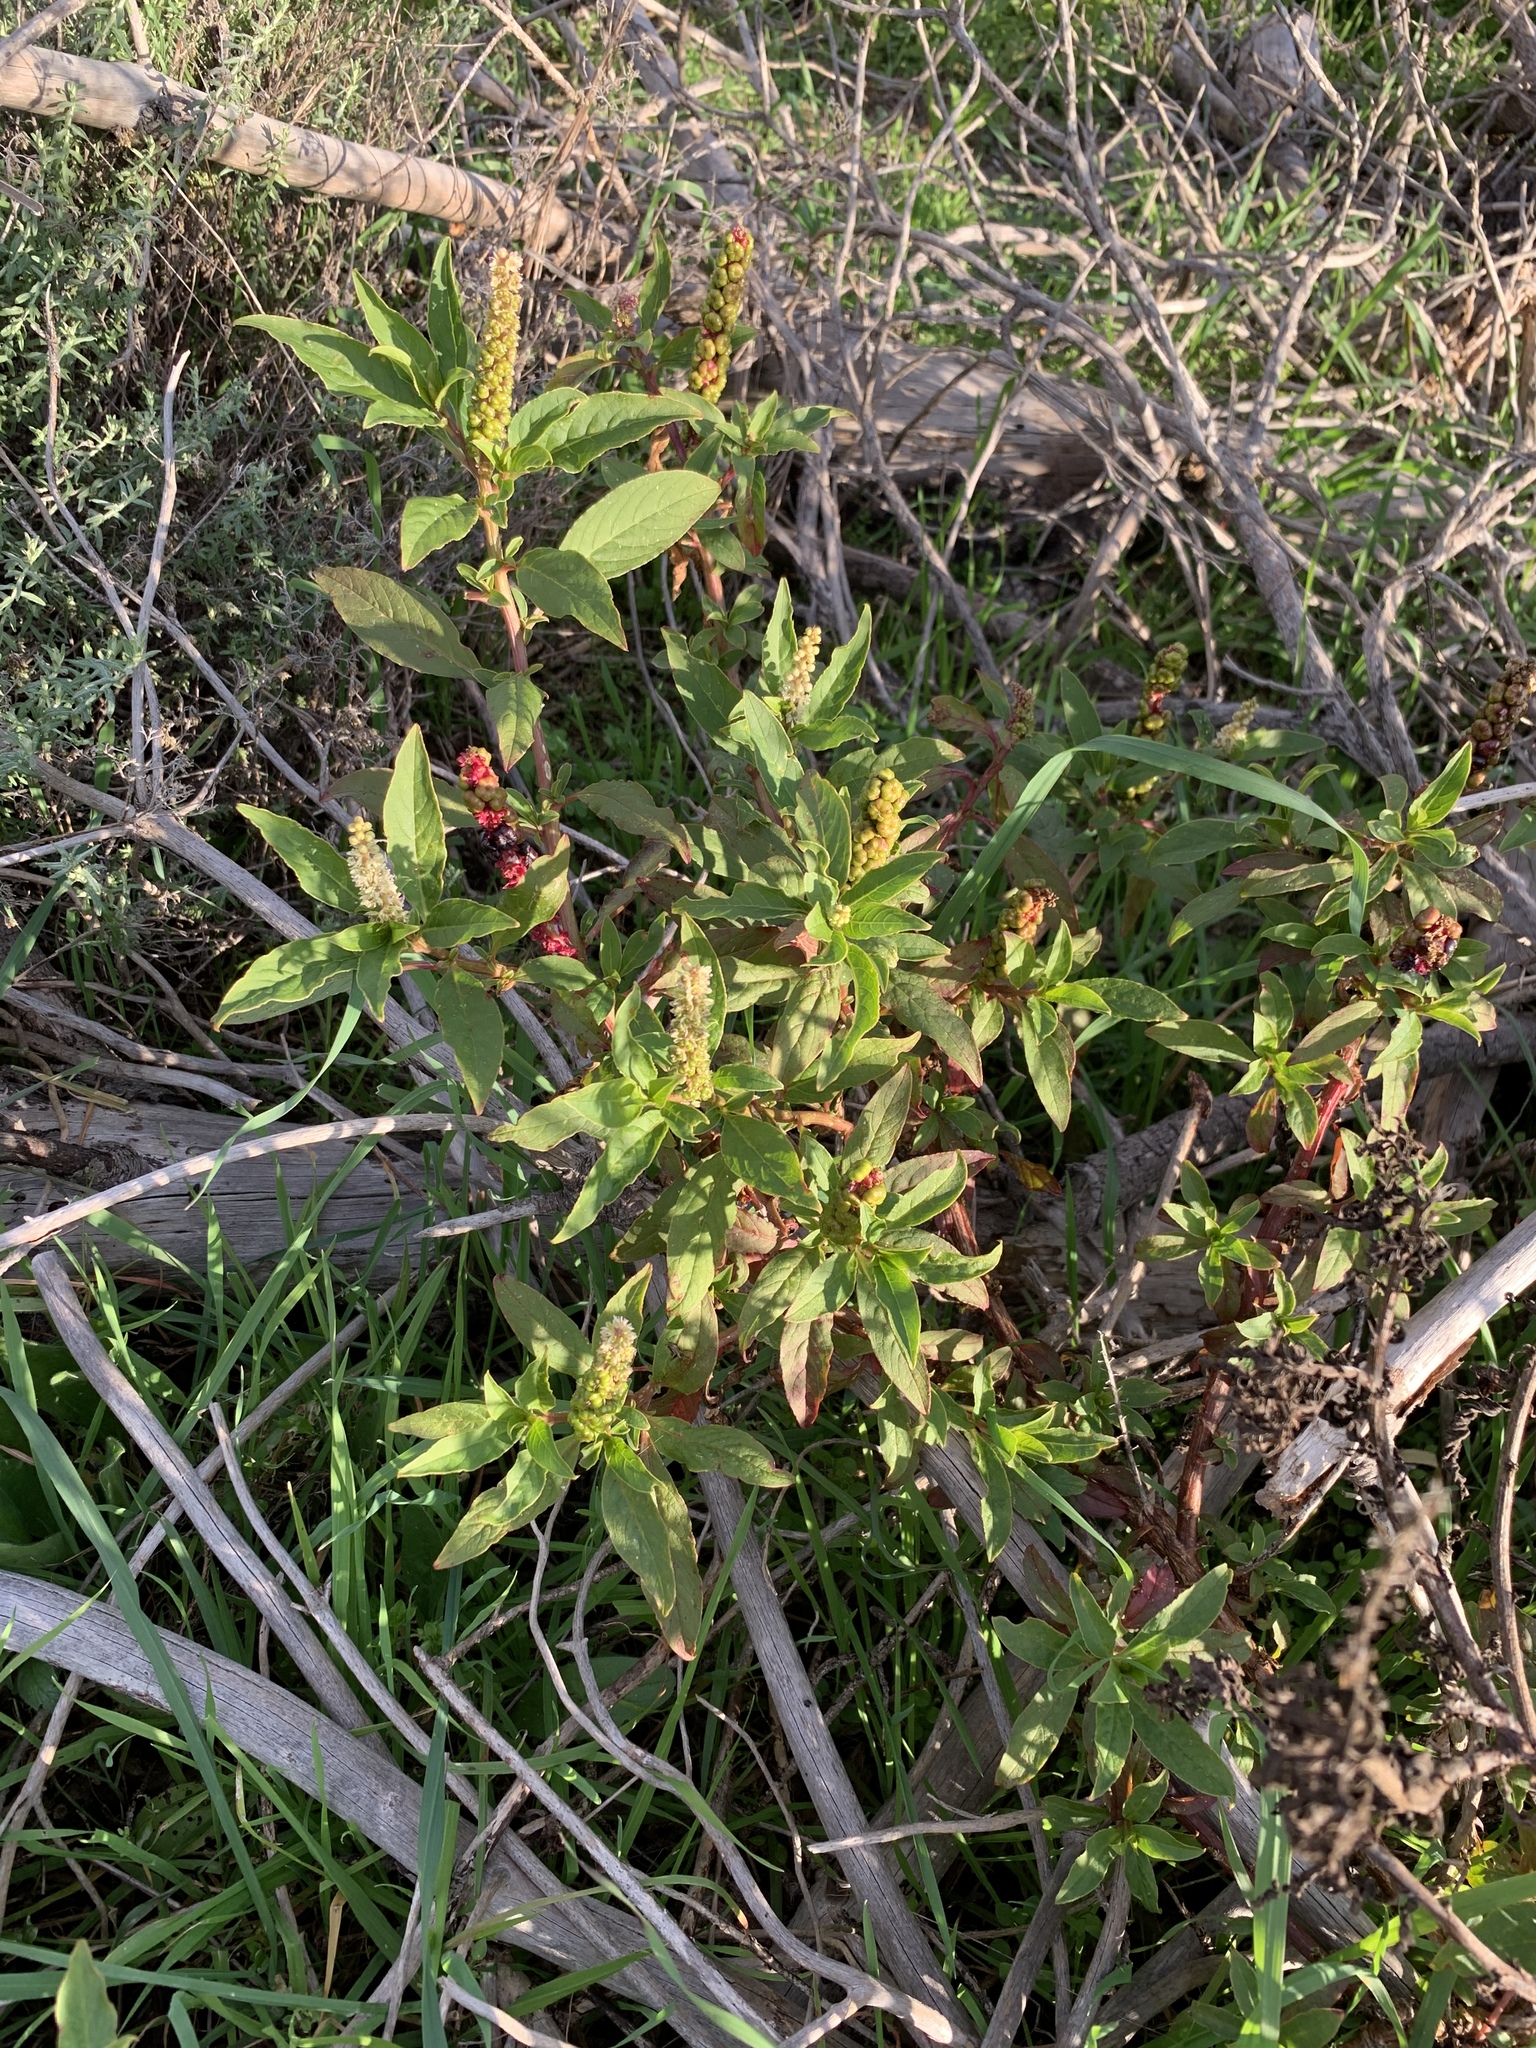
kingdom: Plantae
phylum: Tracheophyta
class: Magnoliopsida
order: Caryophyllales
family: Phytolaccaceae
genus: Phytolacca
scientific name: Phytolacca icosandra
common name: Button pokeweed
